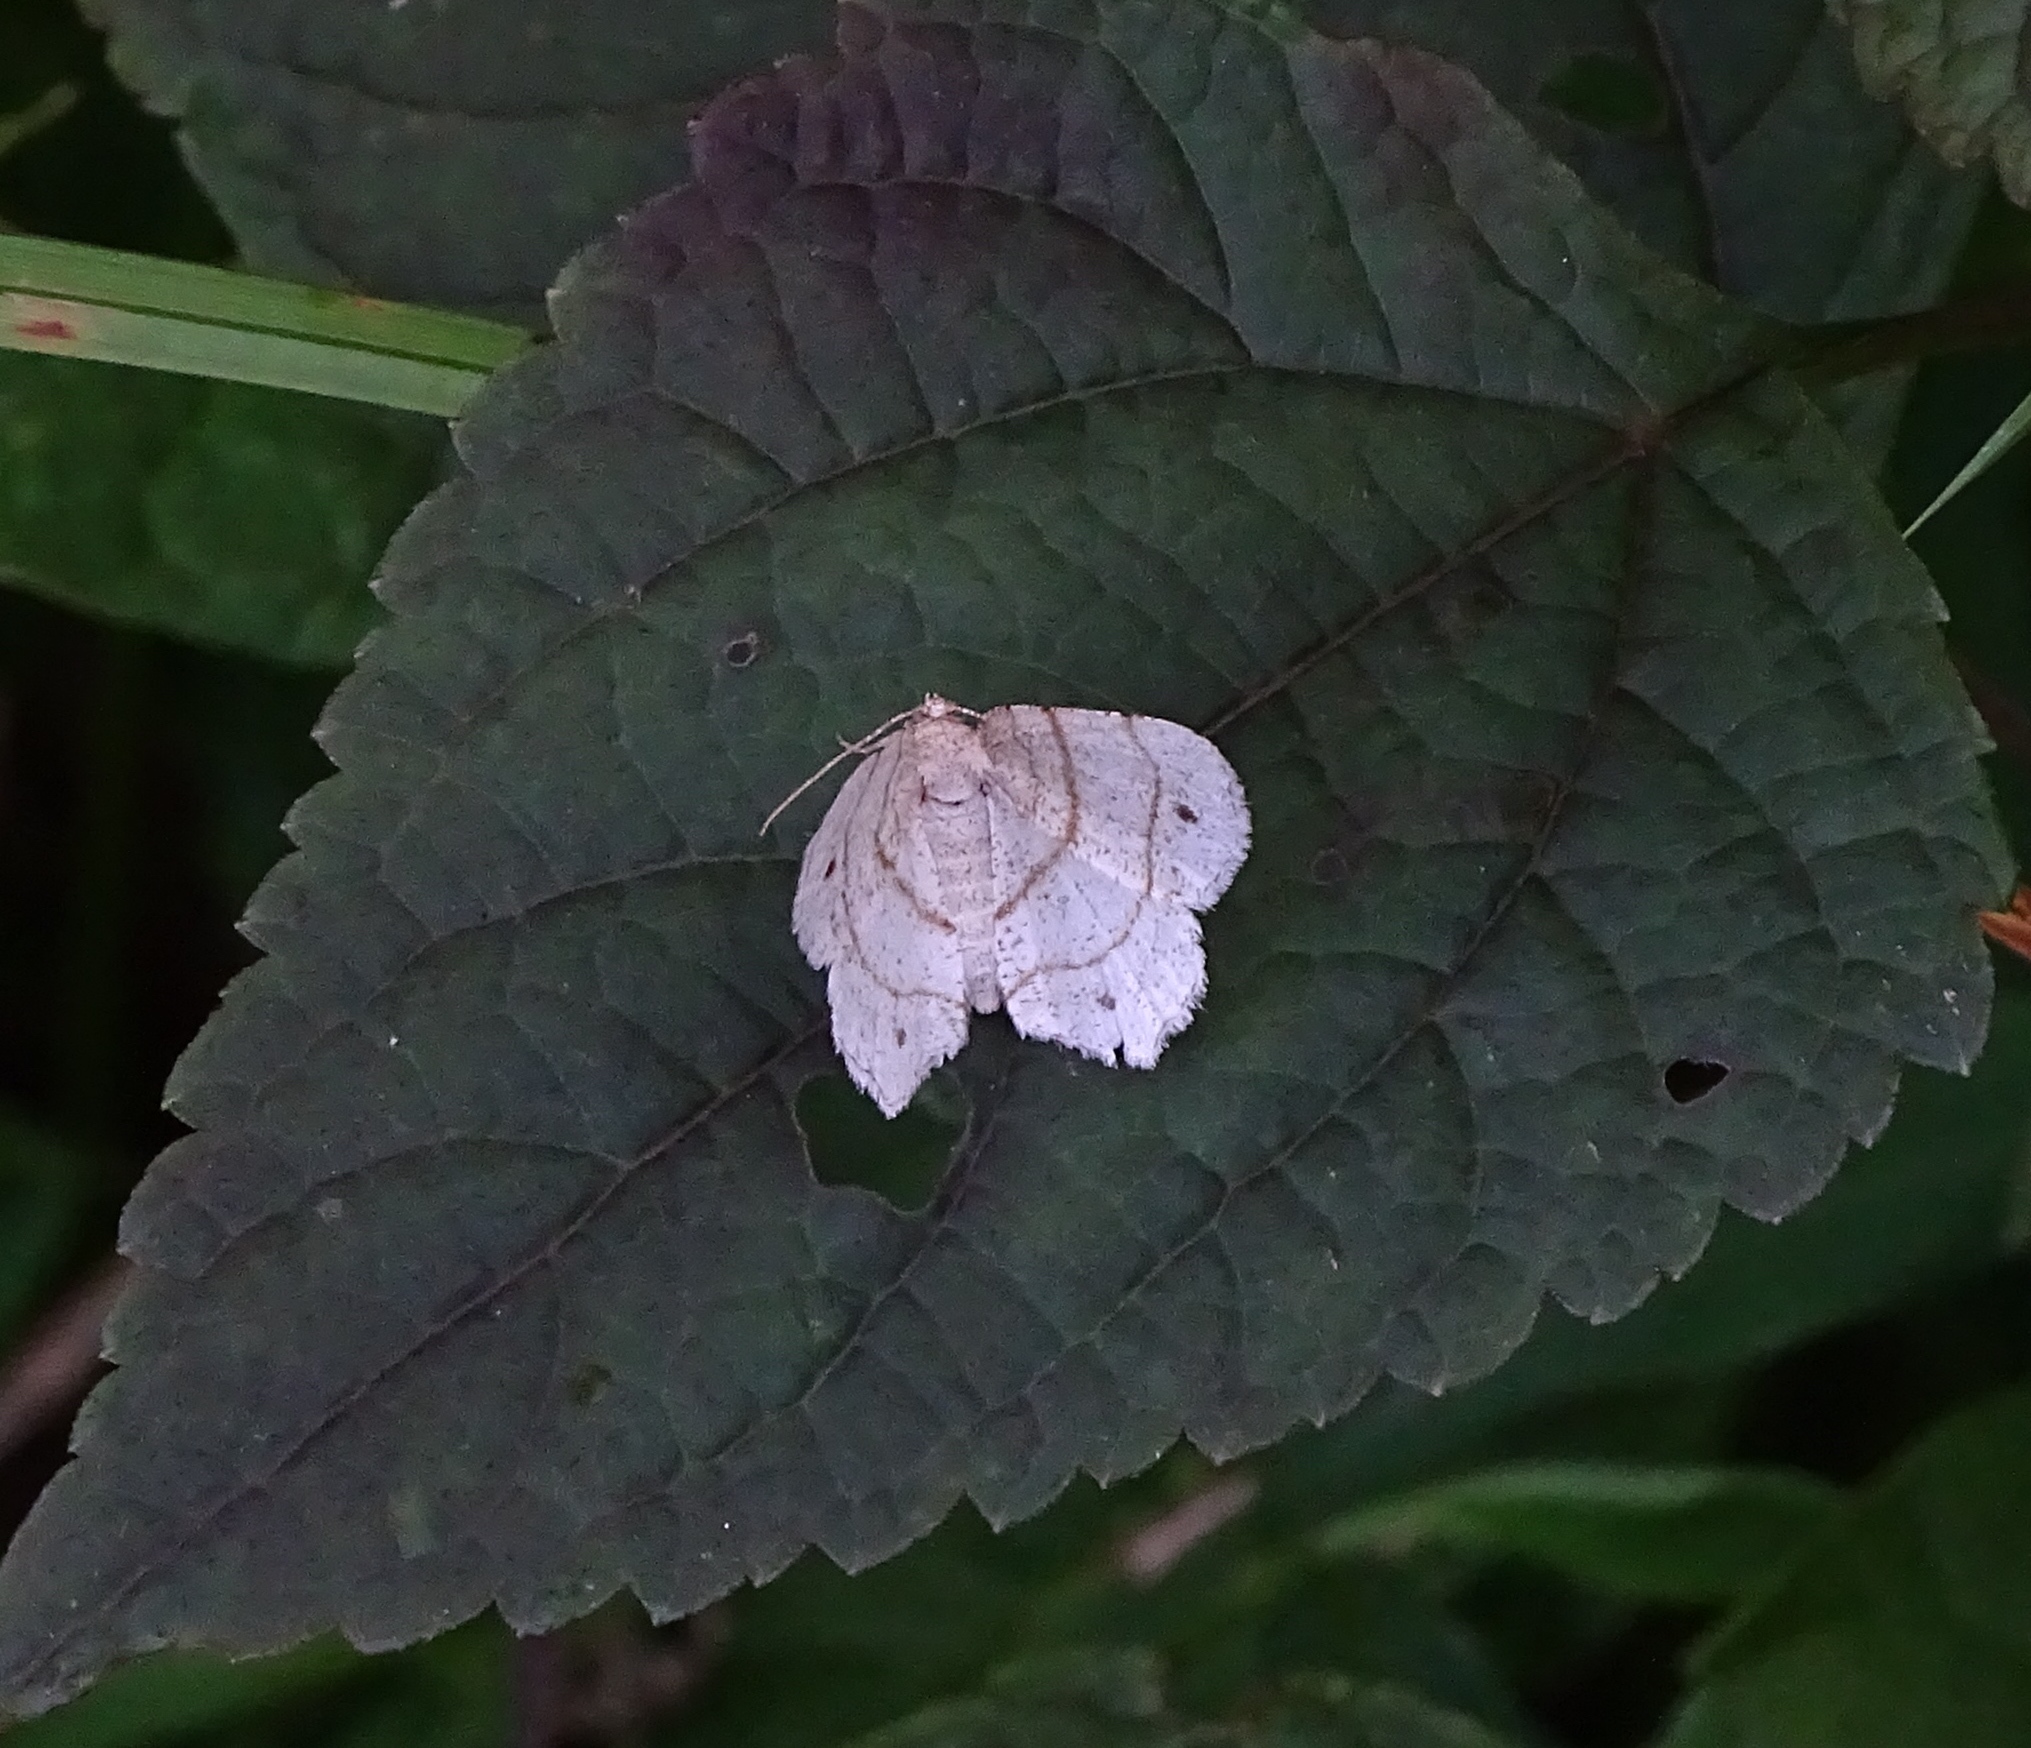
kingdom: Animalia
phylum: Arthropoda
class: Insecta
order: Lepidoptera
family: Geometridae
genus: Trigrammia
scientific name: Trigrammia quadrinotaria
